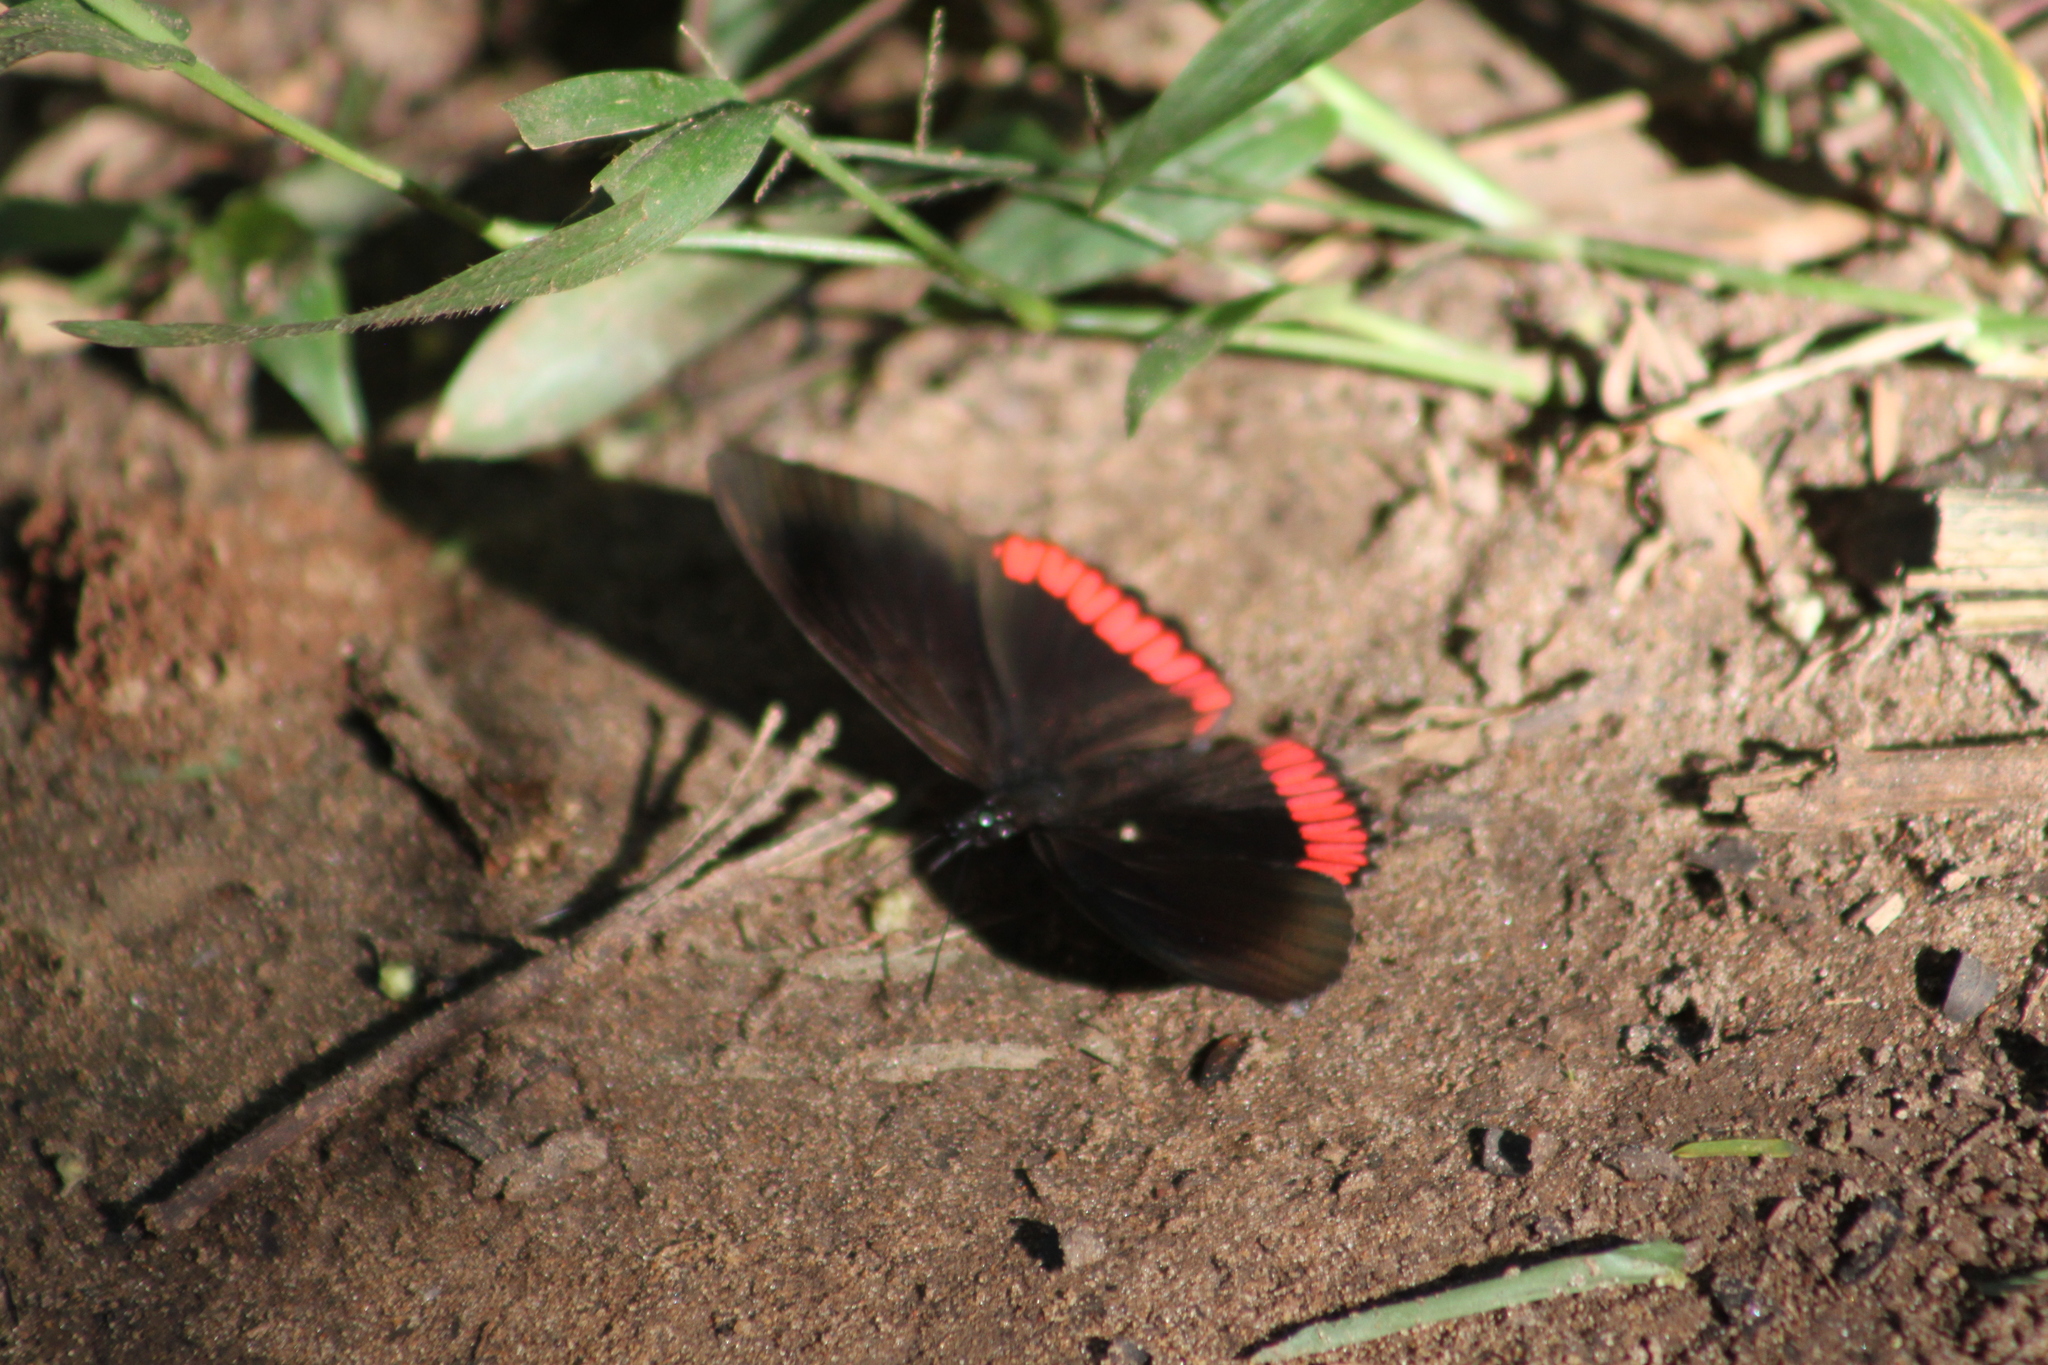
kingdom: Animalia
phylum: Arthropoda
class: Insecta
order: Lepidoptera
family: Sesiidae
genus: Sesia
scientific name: Sesia Biblis hyperia
